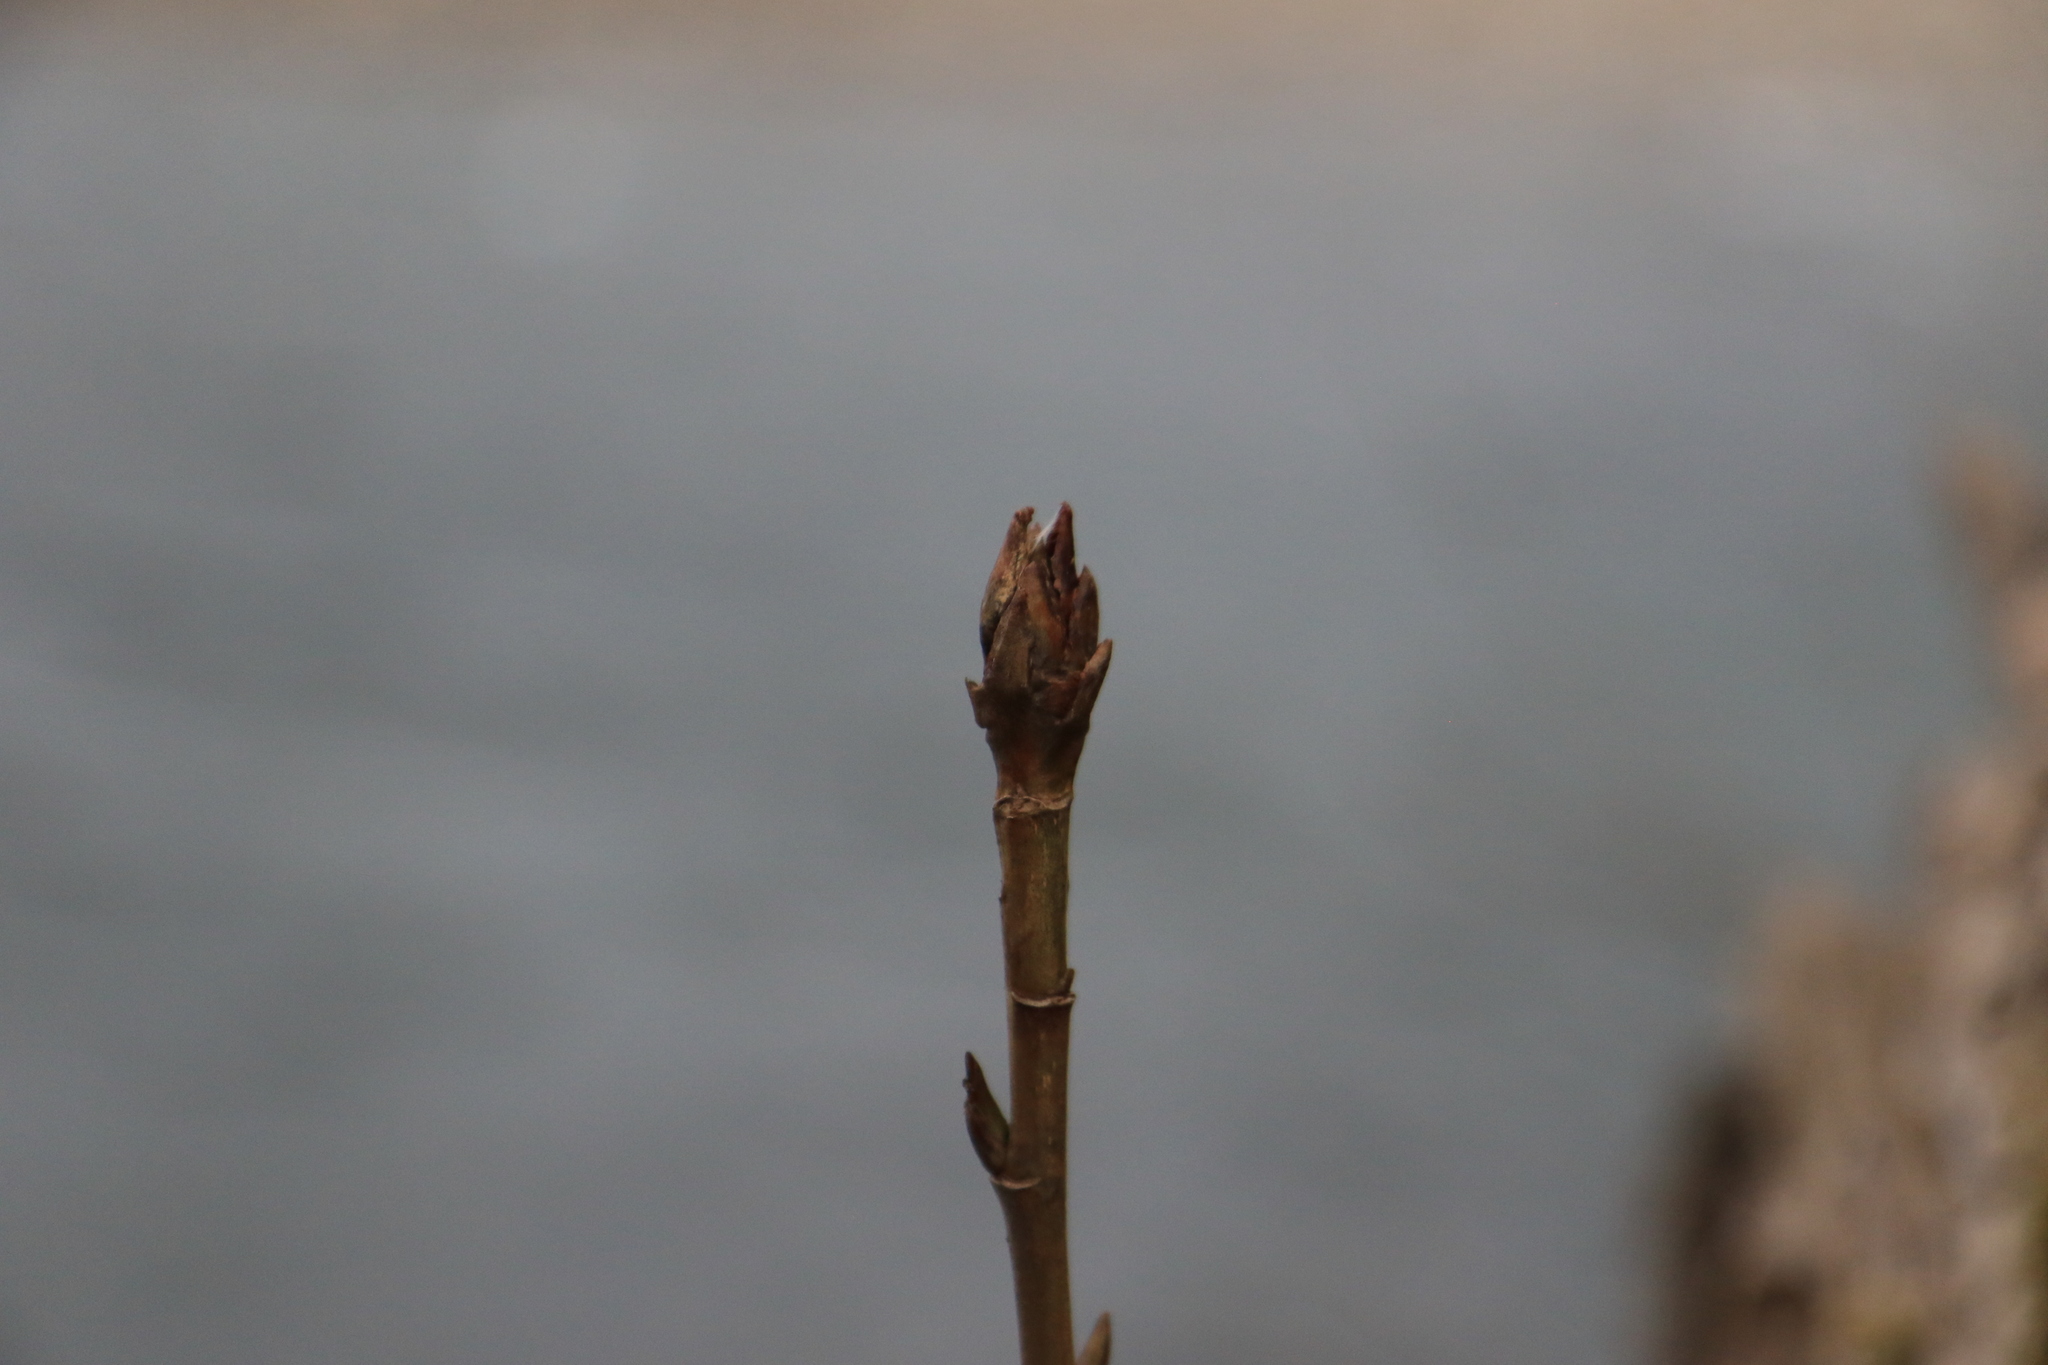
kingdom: Plantae
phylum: Tracheophyta
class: Magnoliopsida
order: Malpighiales
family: Salicaceae
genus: Populus
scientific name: Populus trichocarpa
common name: Black cottonwood
